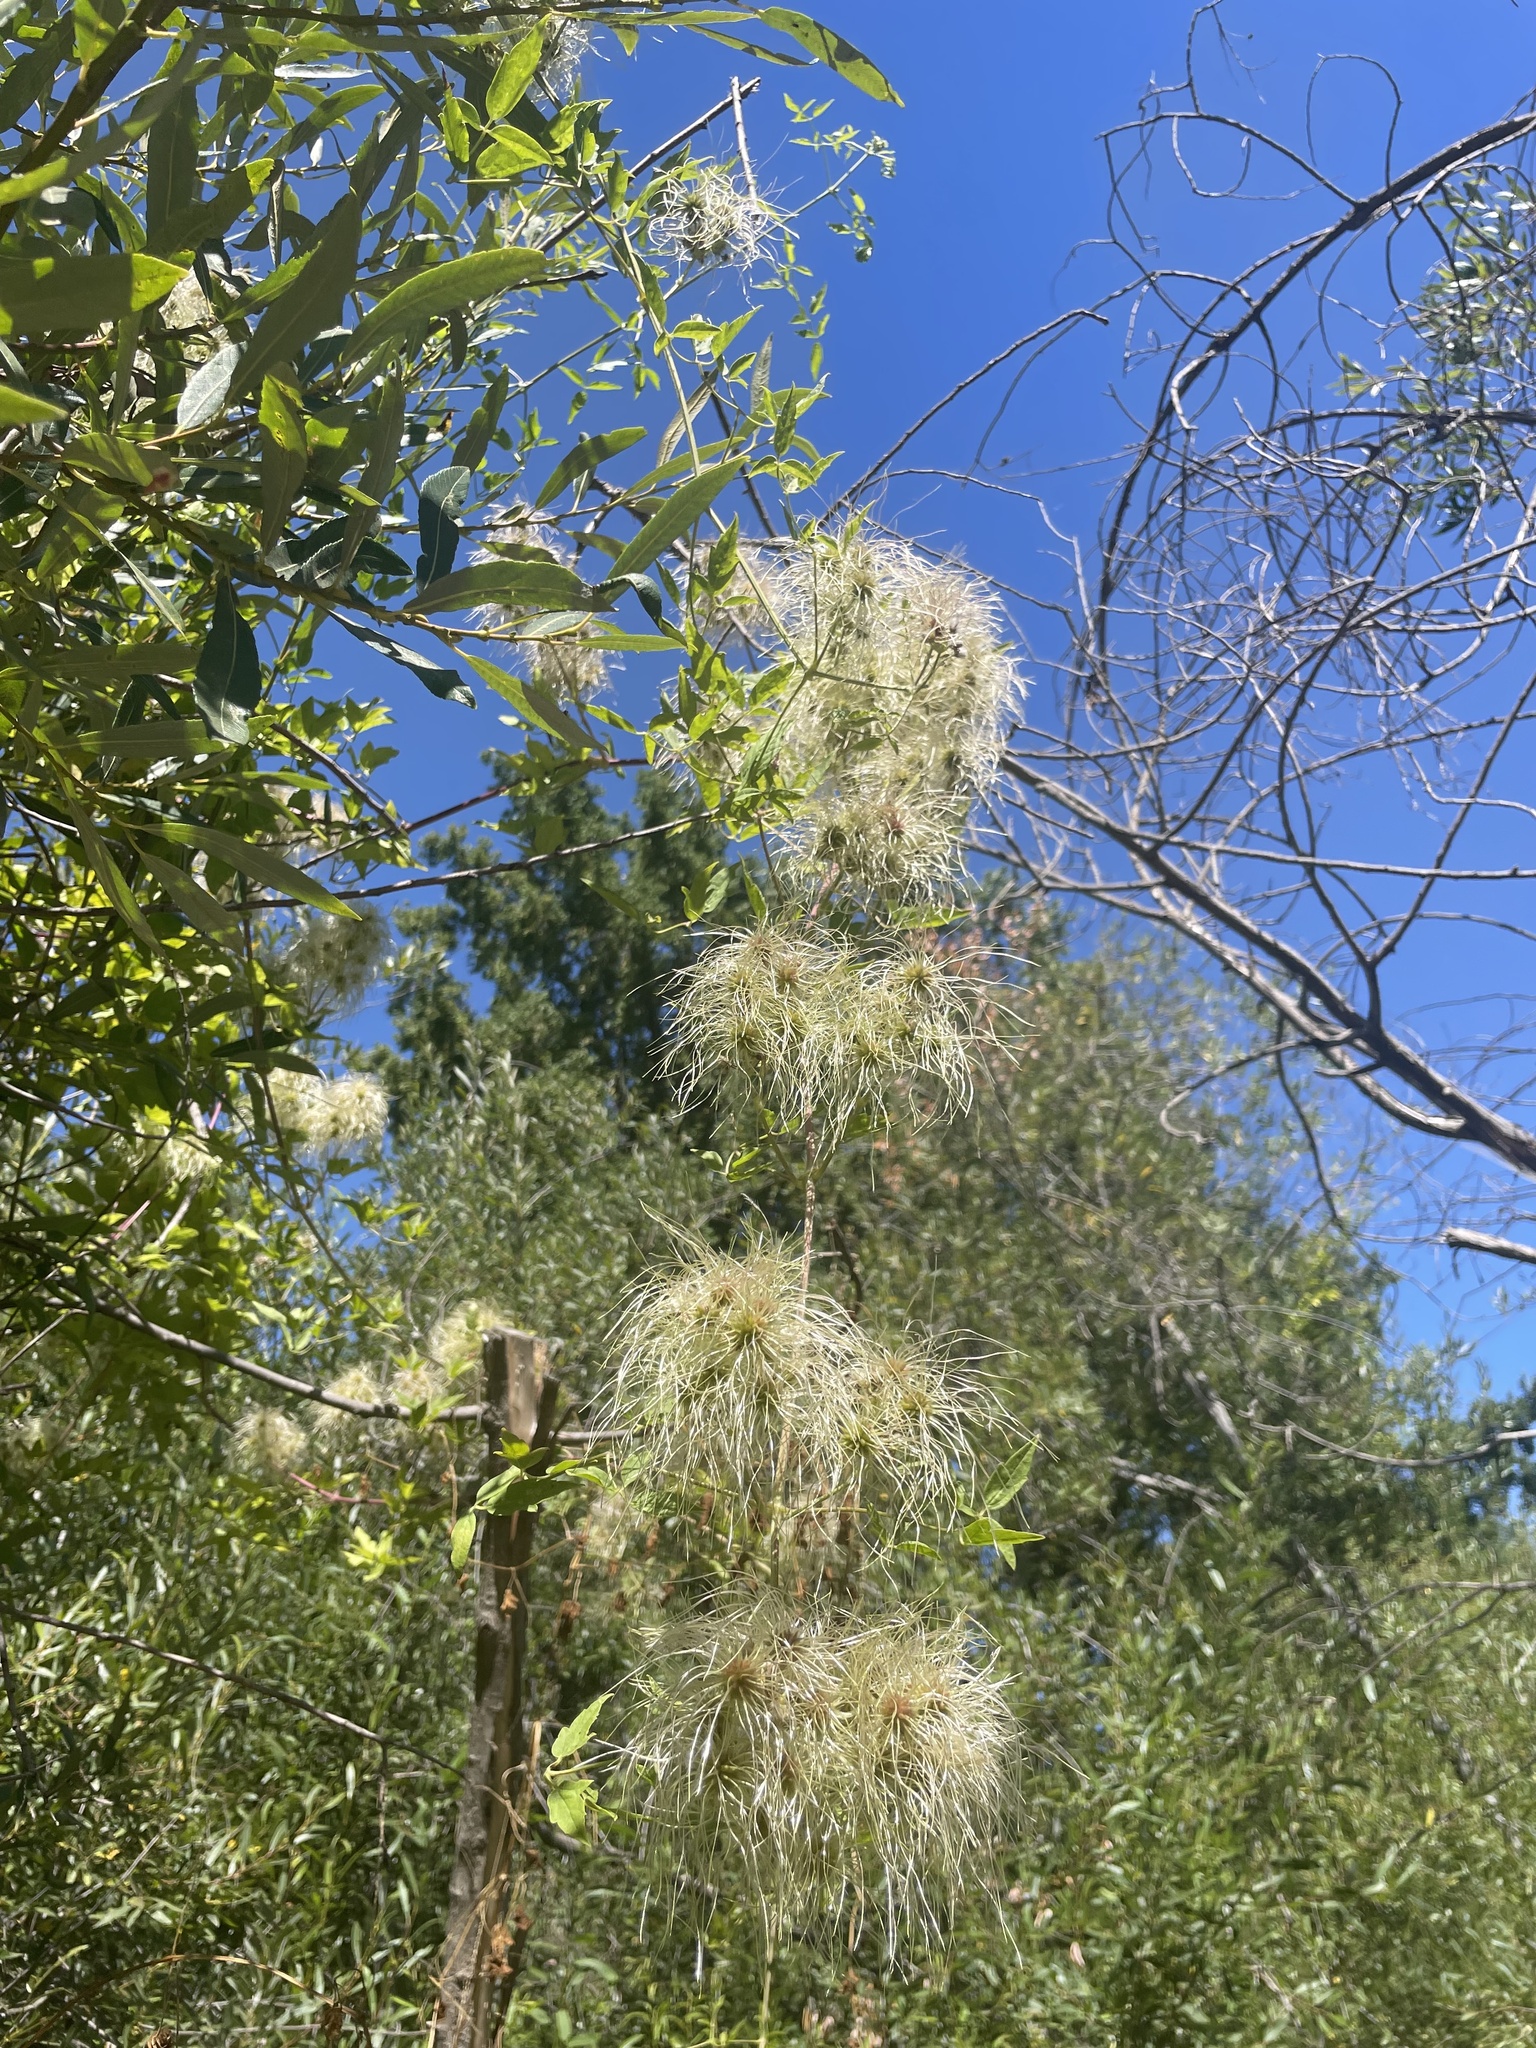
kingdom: Plantae
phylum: Tracheophyta
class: Magnoliopsida
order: Ranunculales
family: Ranunculaceae
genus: Clematis
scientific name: Clematis ligusticifolia
